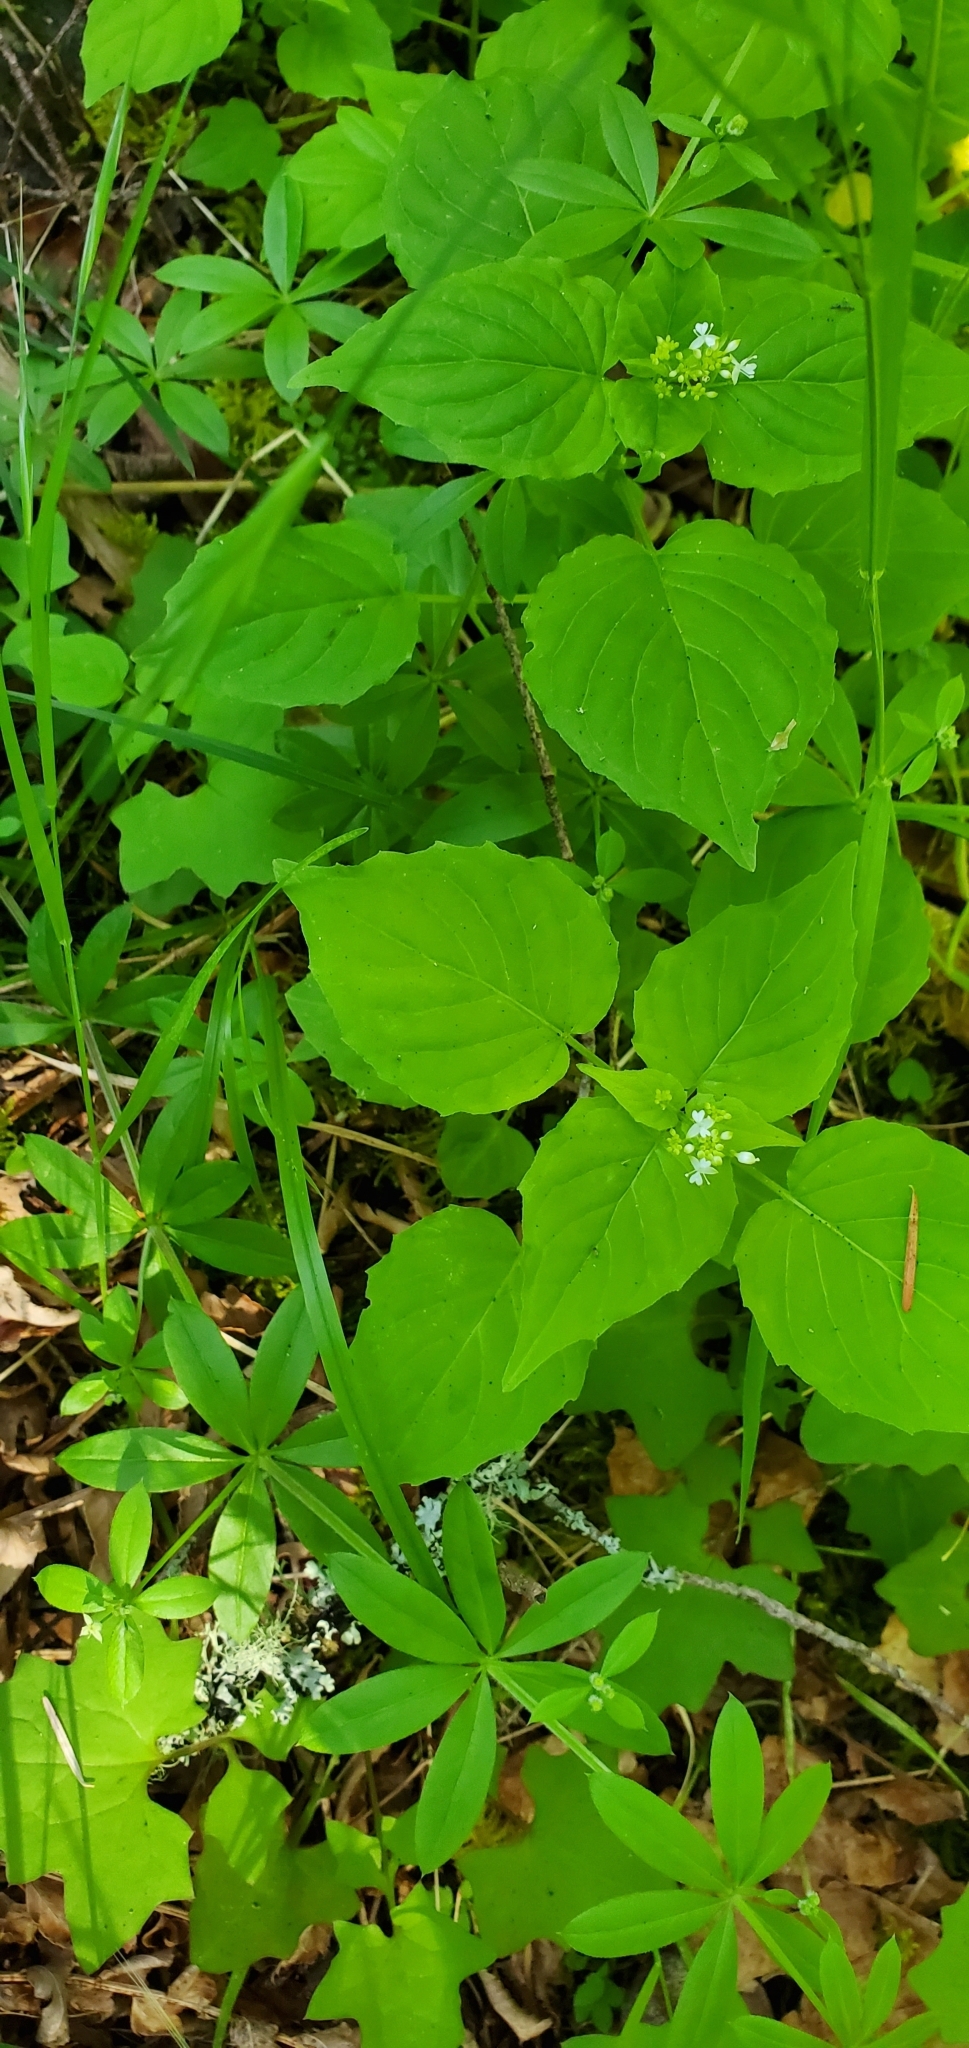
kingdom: Plantae
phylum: Tracheophyta
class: Magnoliopsida
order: Myrtales
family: Onagraceae
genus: Circaea
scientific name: Circaea alpina
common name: Alpine enchanter's-nightshade
